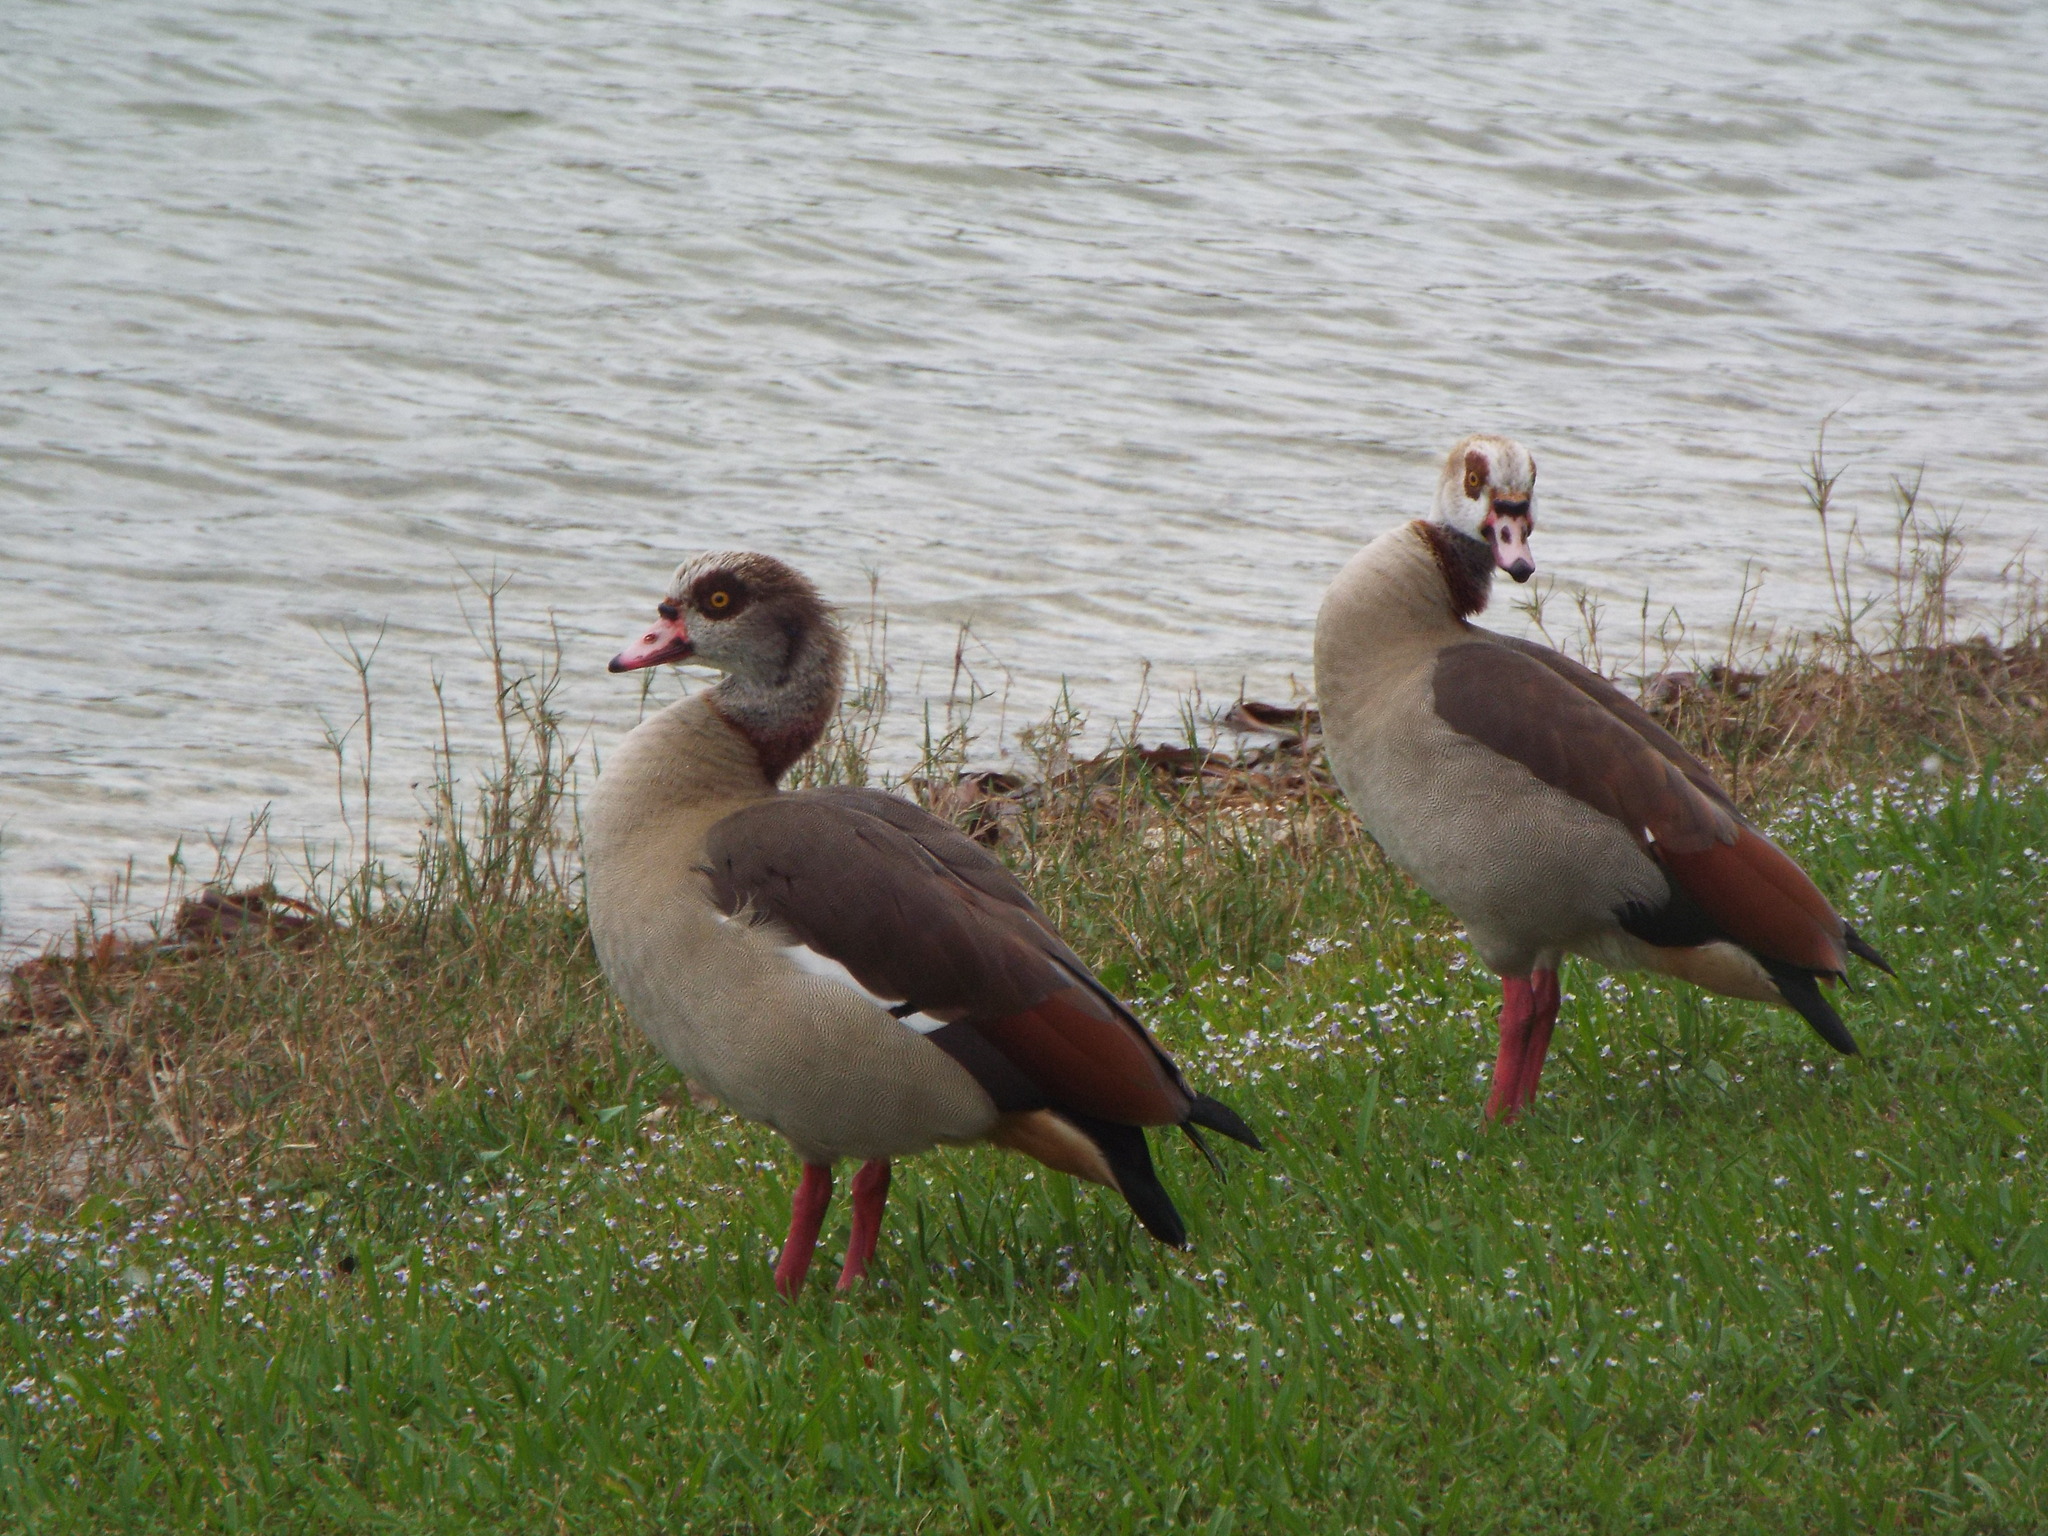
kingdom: Animalia
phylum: Chordata
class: Aves
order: Anseriformes
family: Anatidae
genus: Alopochen
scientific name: Alopochen aegyptiaca
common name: Egyptian goose
